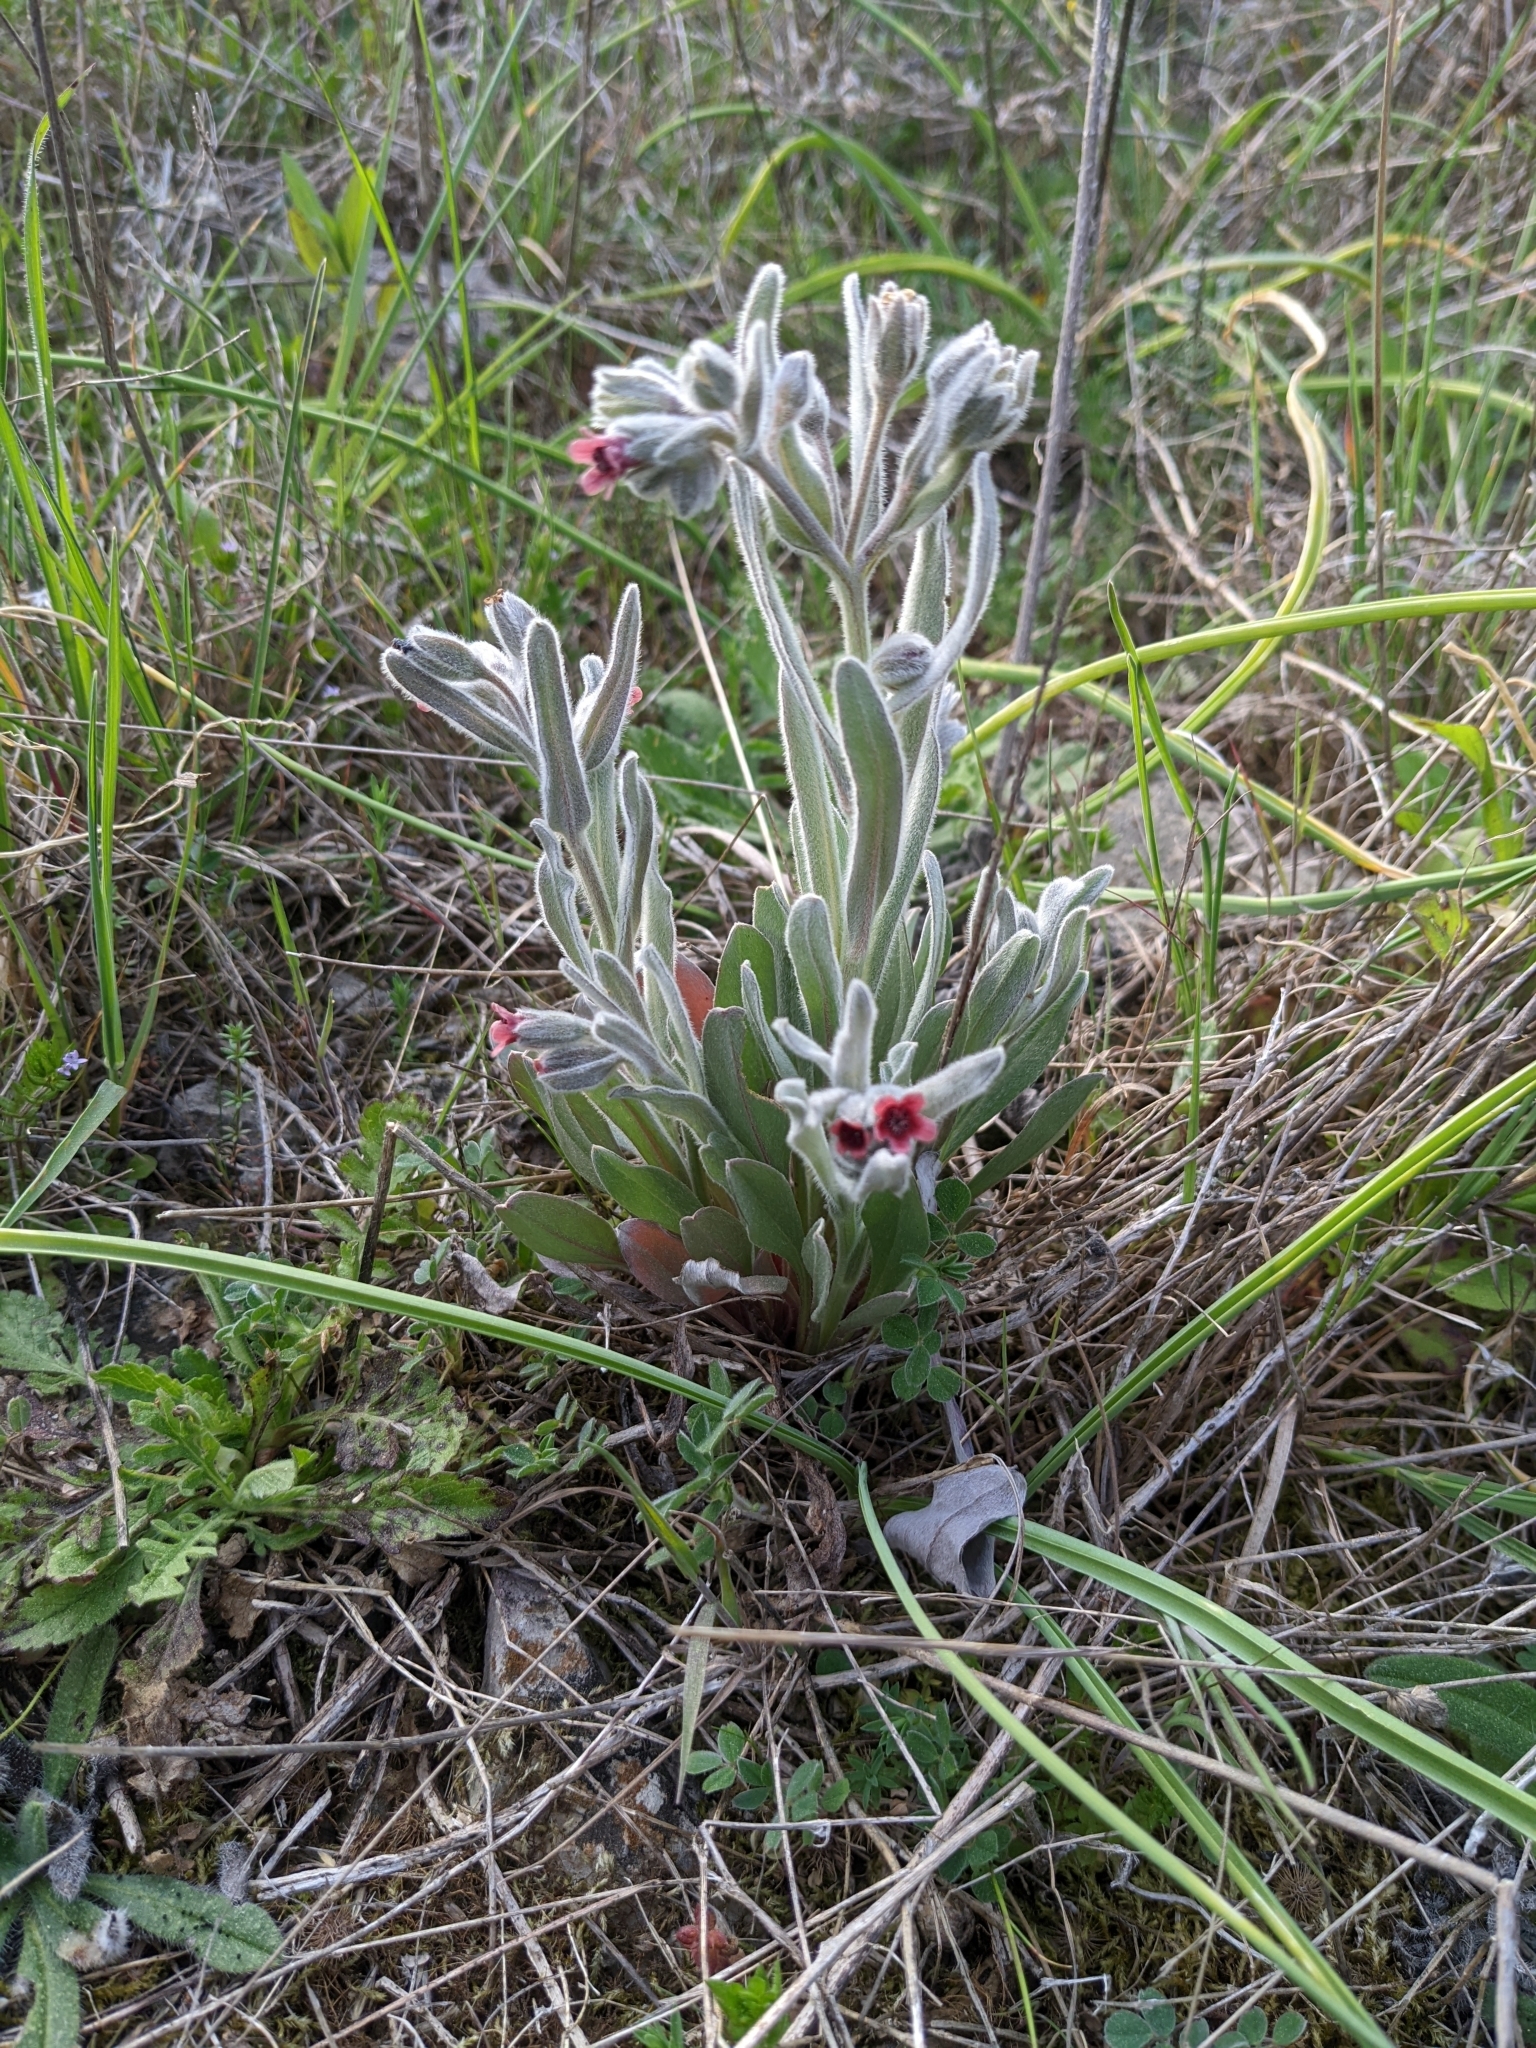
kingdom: Plantae
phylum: Tracheophyta
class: Magnoliopsida
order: Boraginales
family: Boraginaceae
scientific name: Boraginaceae
